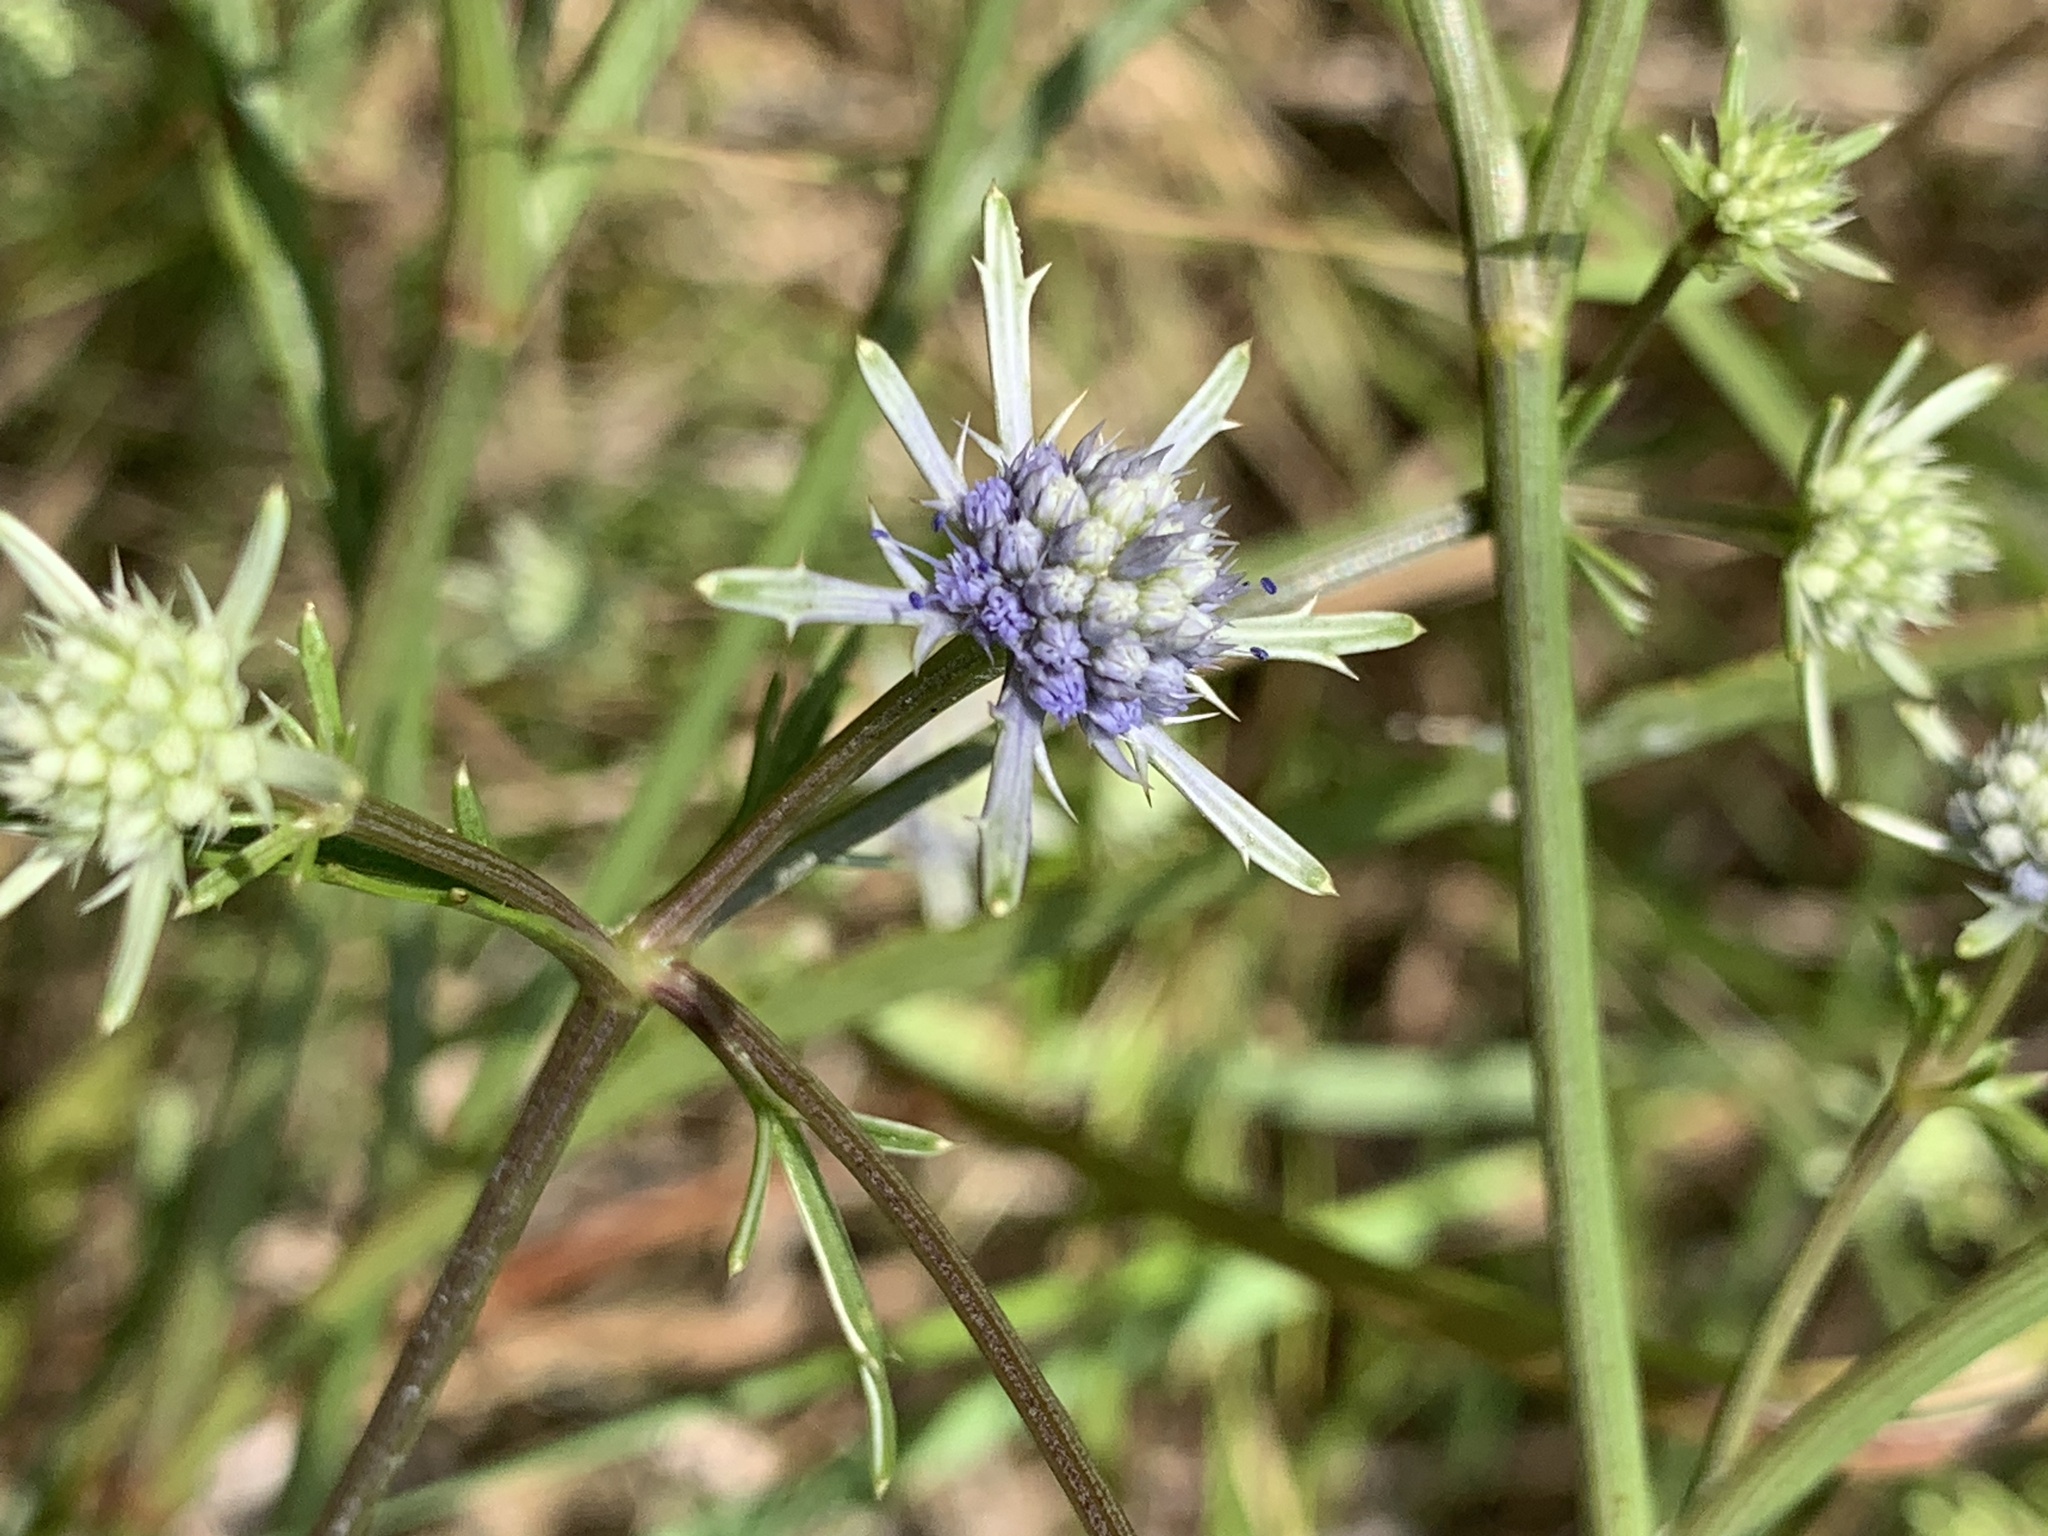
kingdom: Plantae
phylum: Tracheophyta
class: Magnoliopsida
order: Apiales
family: Apiaceae
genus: Eryngium
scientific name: Eryngium integrifolium
